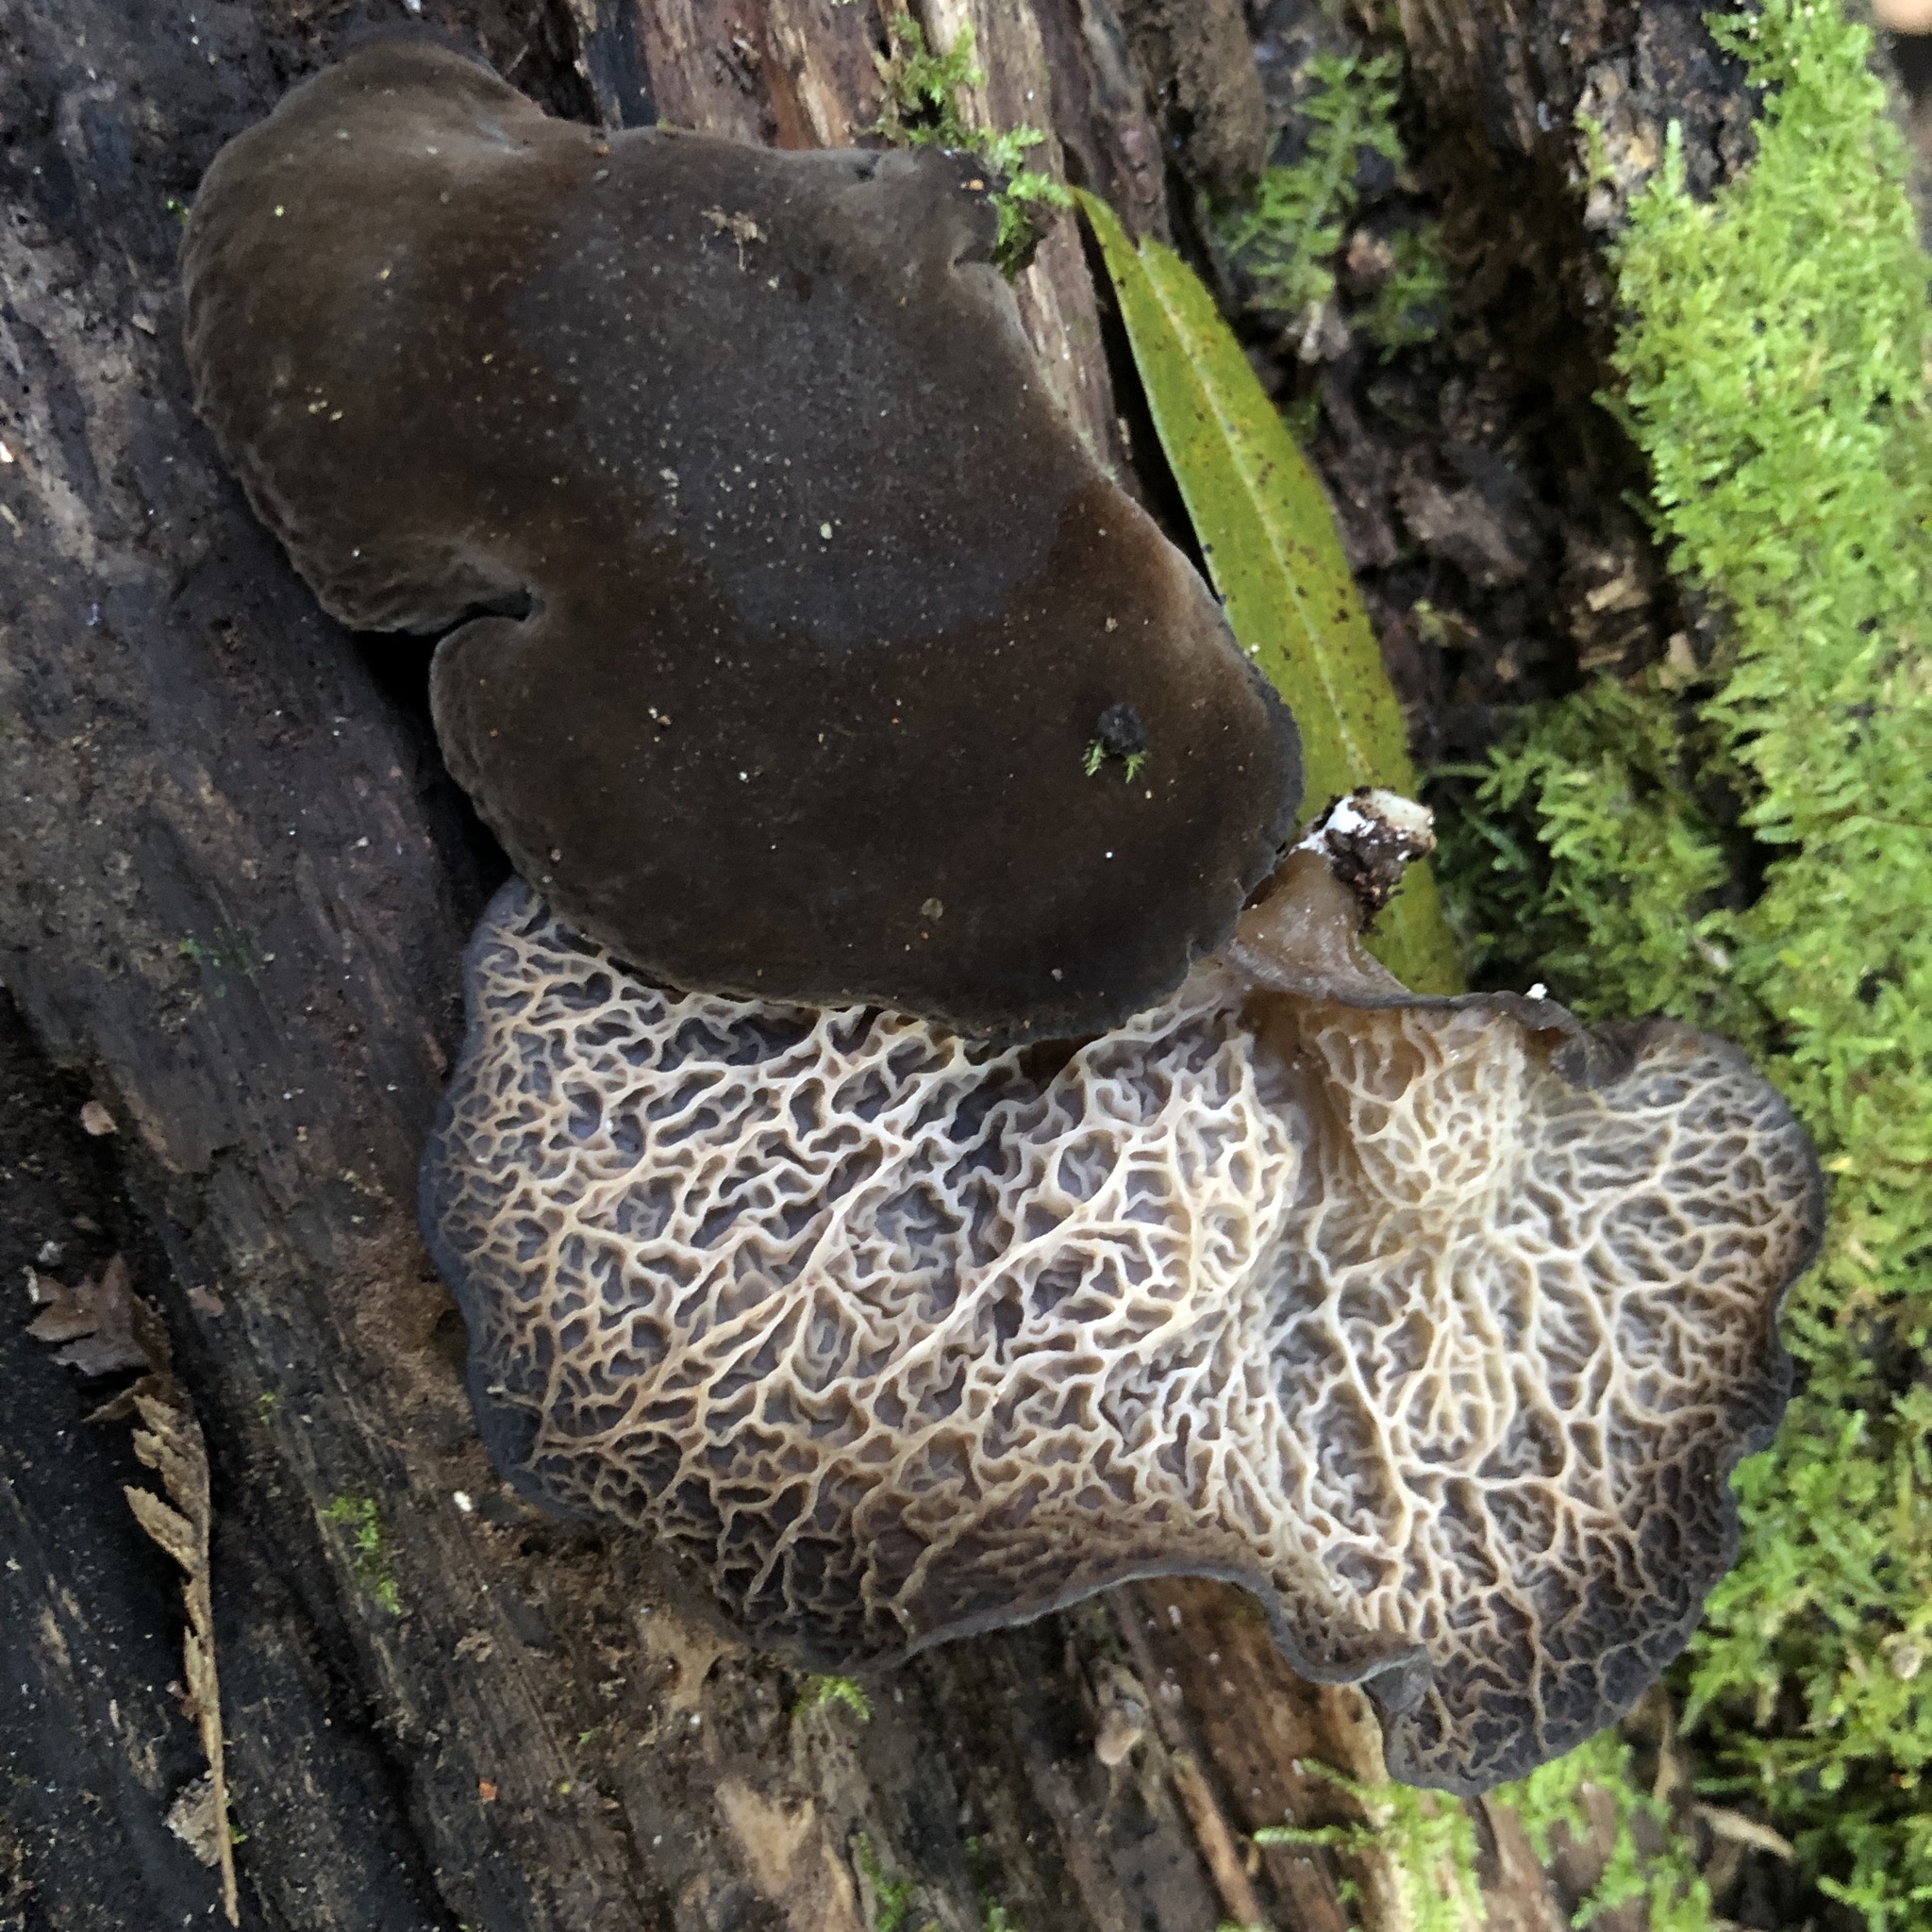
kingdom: Fungi
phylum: Basidiomycota
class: Agaricomycetes
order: Auriculariales
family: Auriculariaceae
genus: Auricularia
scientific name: Auricularia delicata
